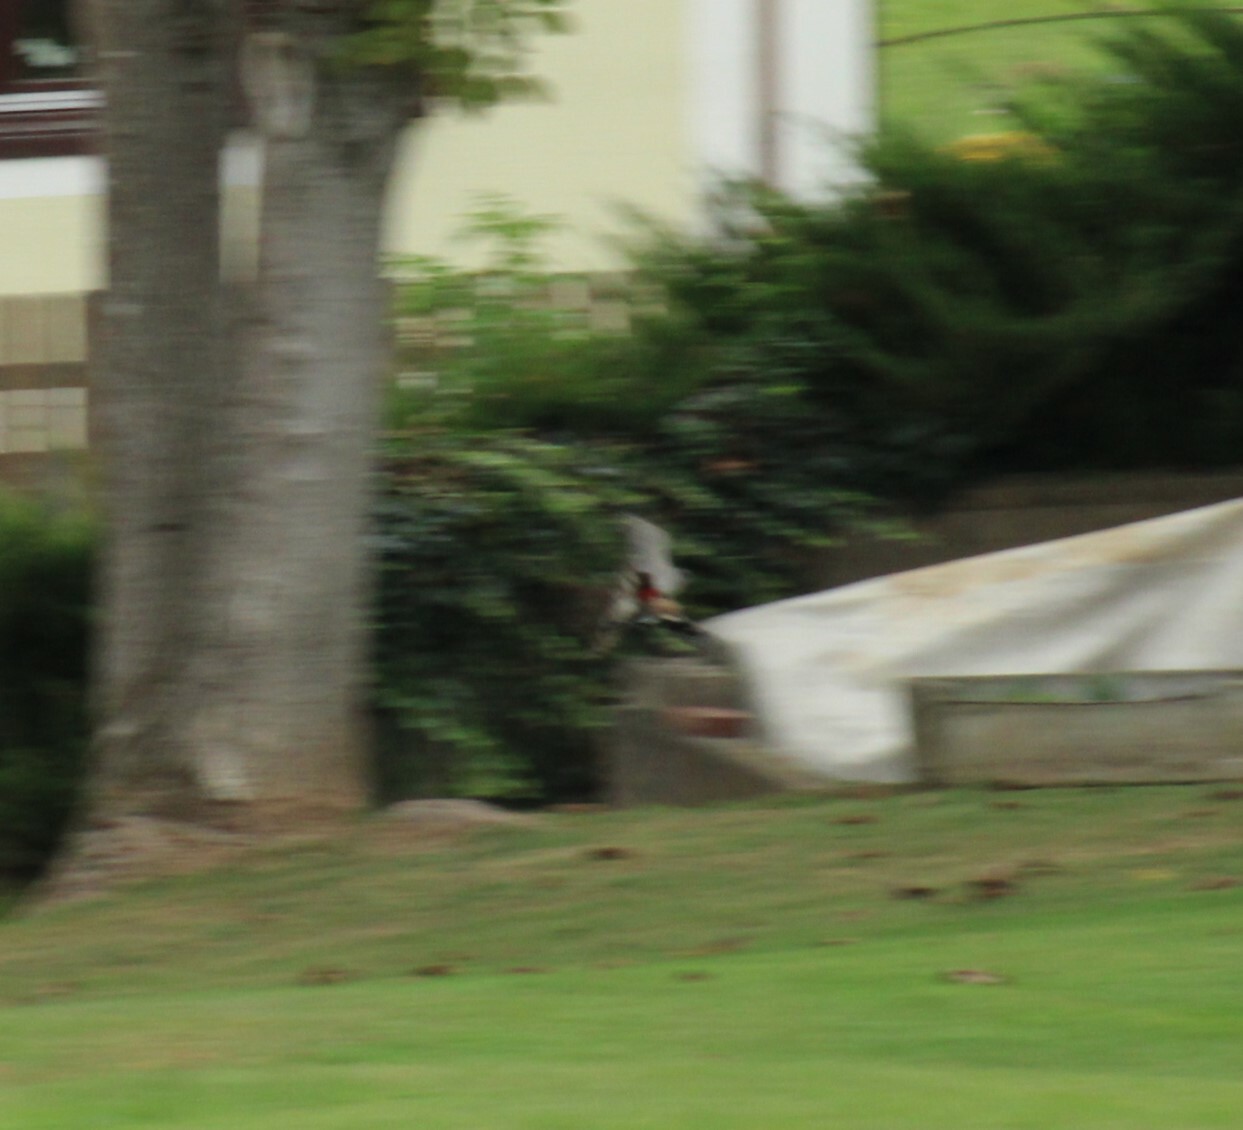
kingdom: Animalia
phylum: Chordata
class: Aves
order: Accipitriformes
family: Accipitridae
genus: Accipiter
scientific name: Accipiter nisus
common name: Eurasian sparrowhawk
